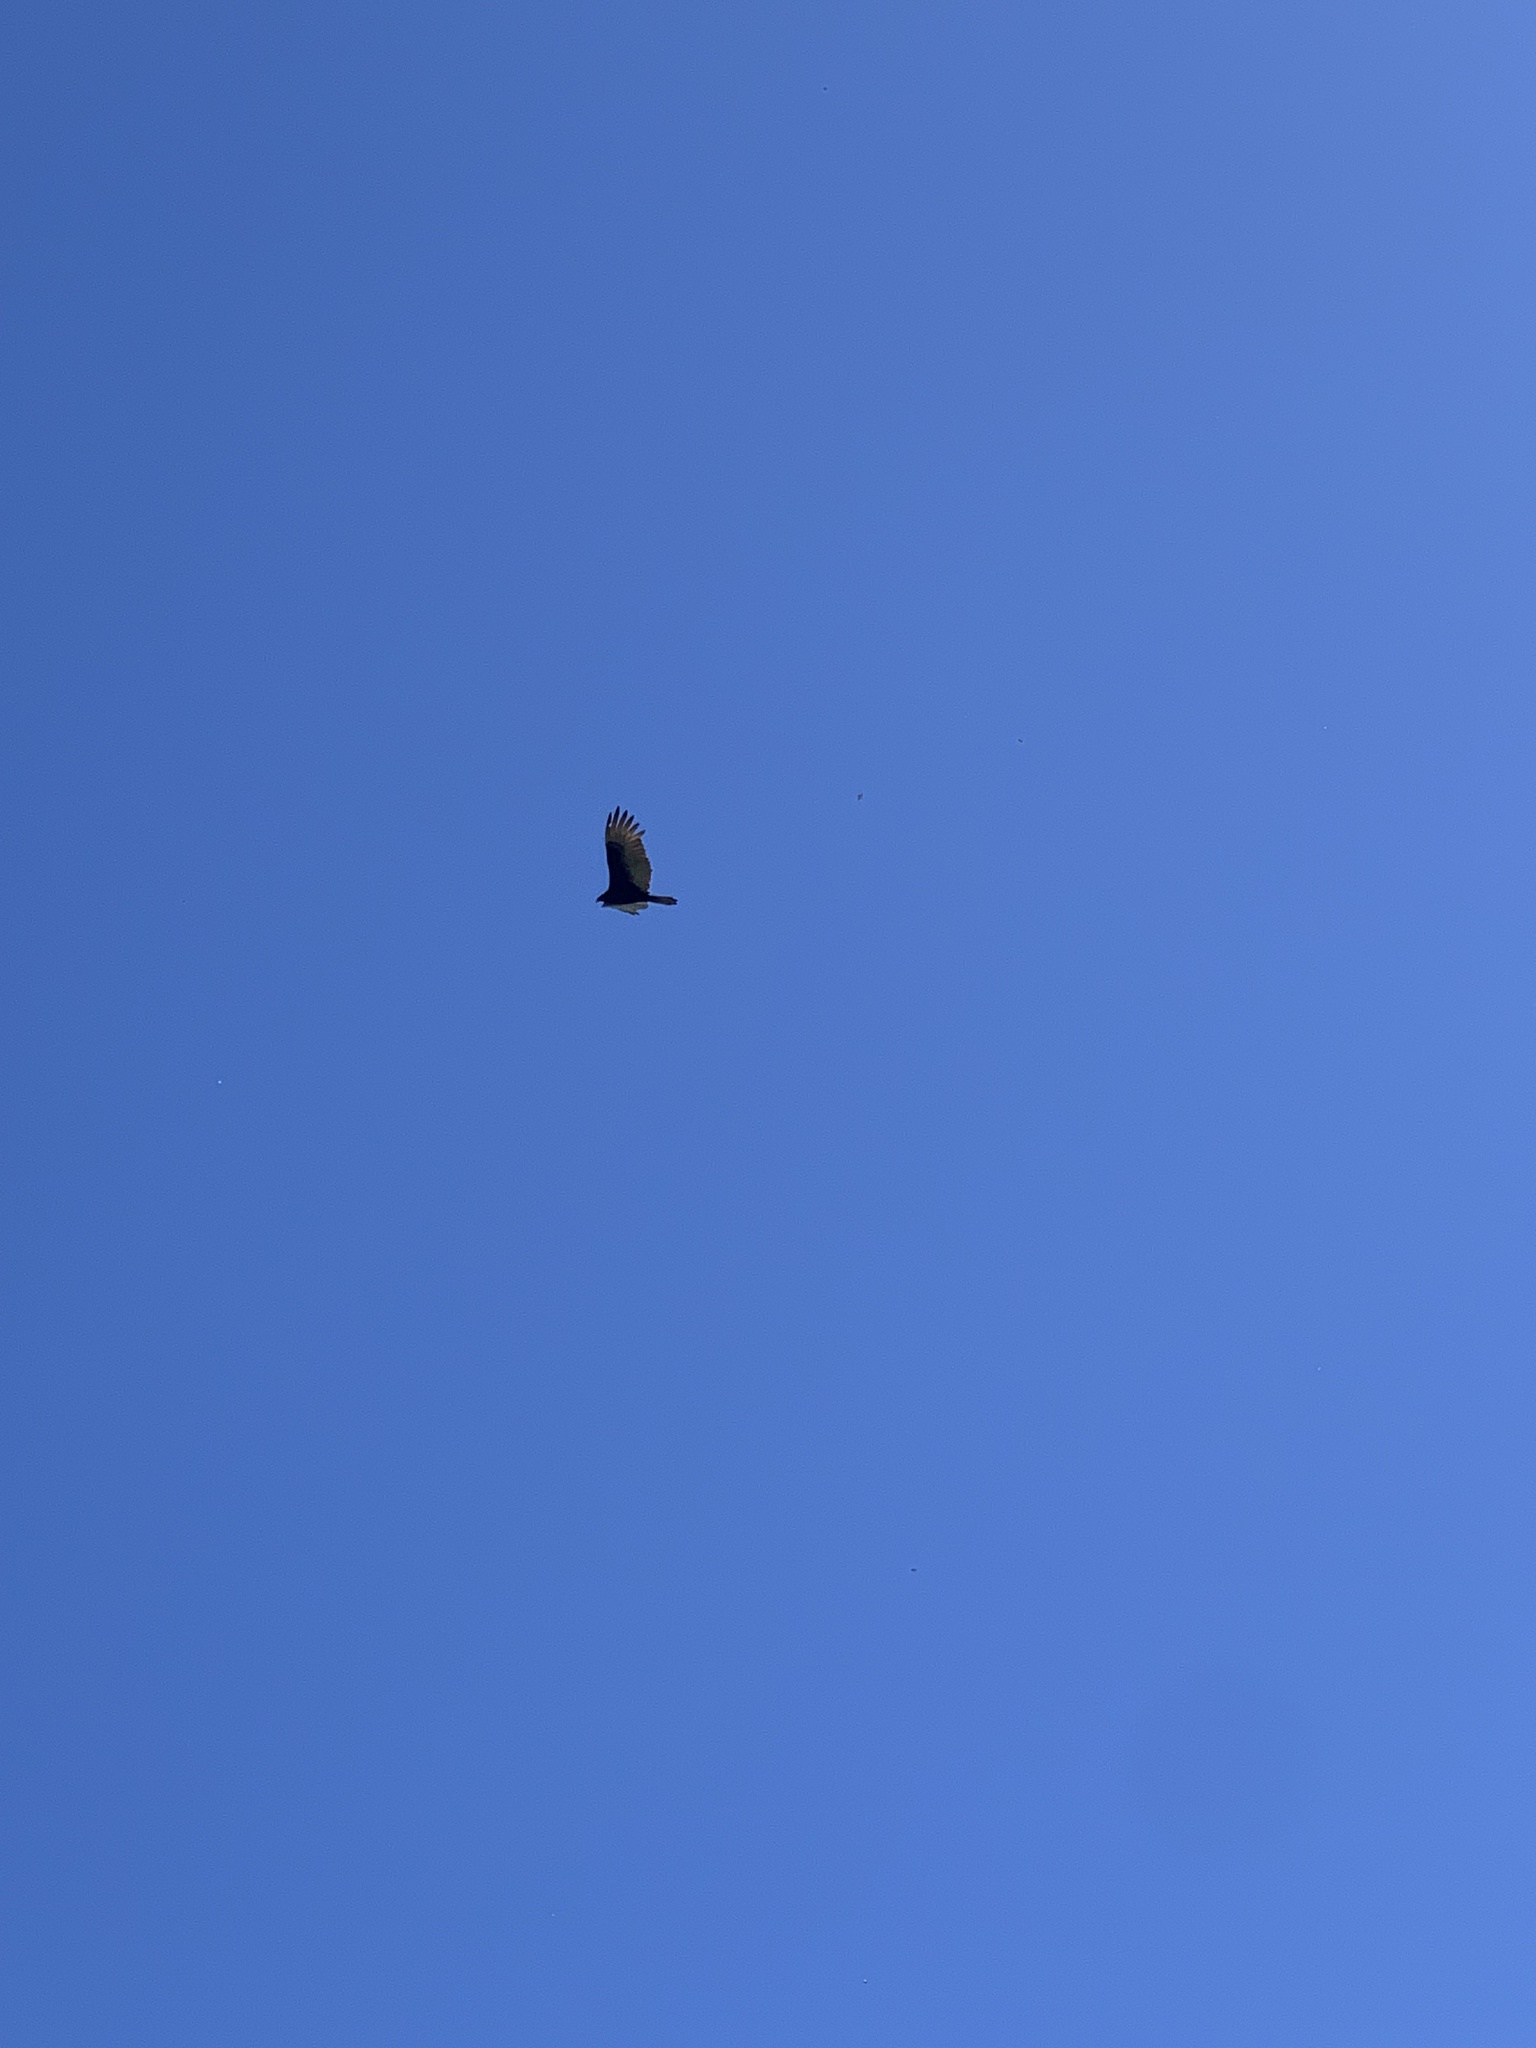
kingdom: Animalia
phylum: Chordata
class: Aves
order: Accipitriformes
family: Cathartidae
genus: Cathartes
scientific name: Cathartes aura
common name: Turkey vulture
